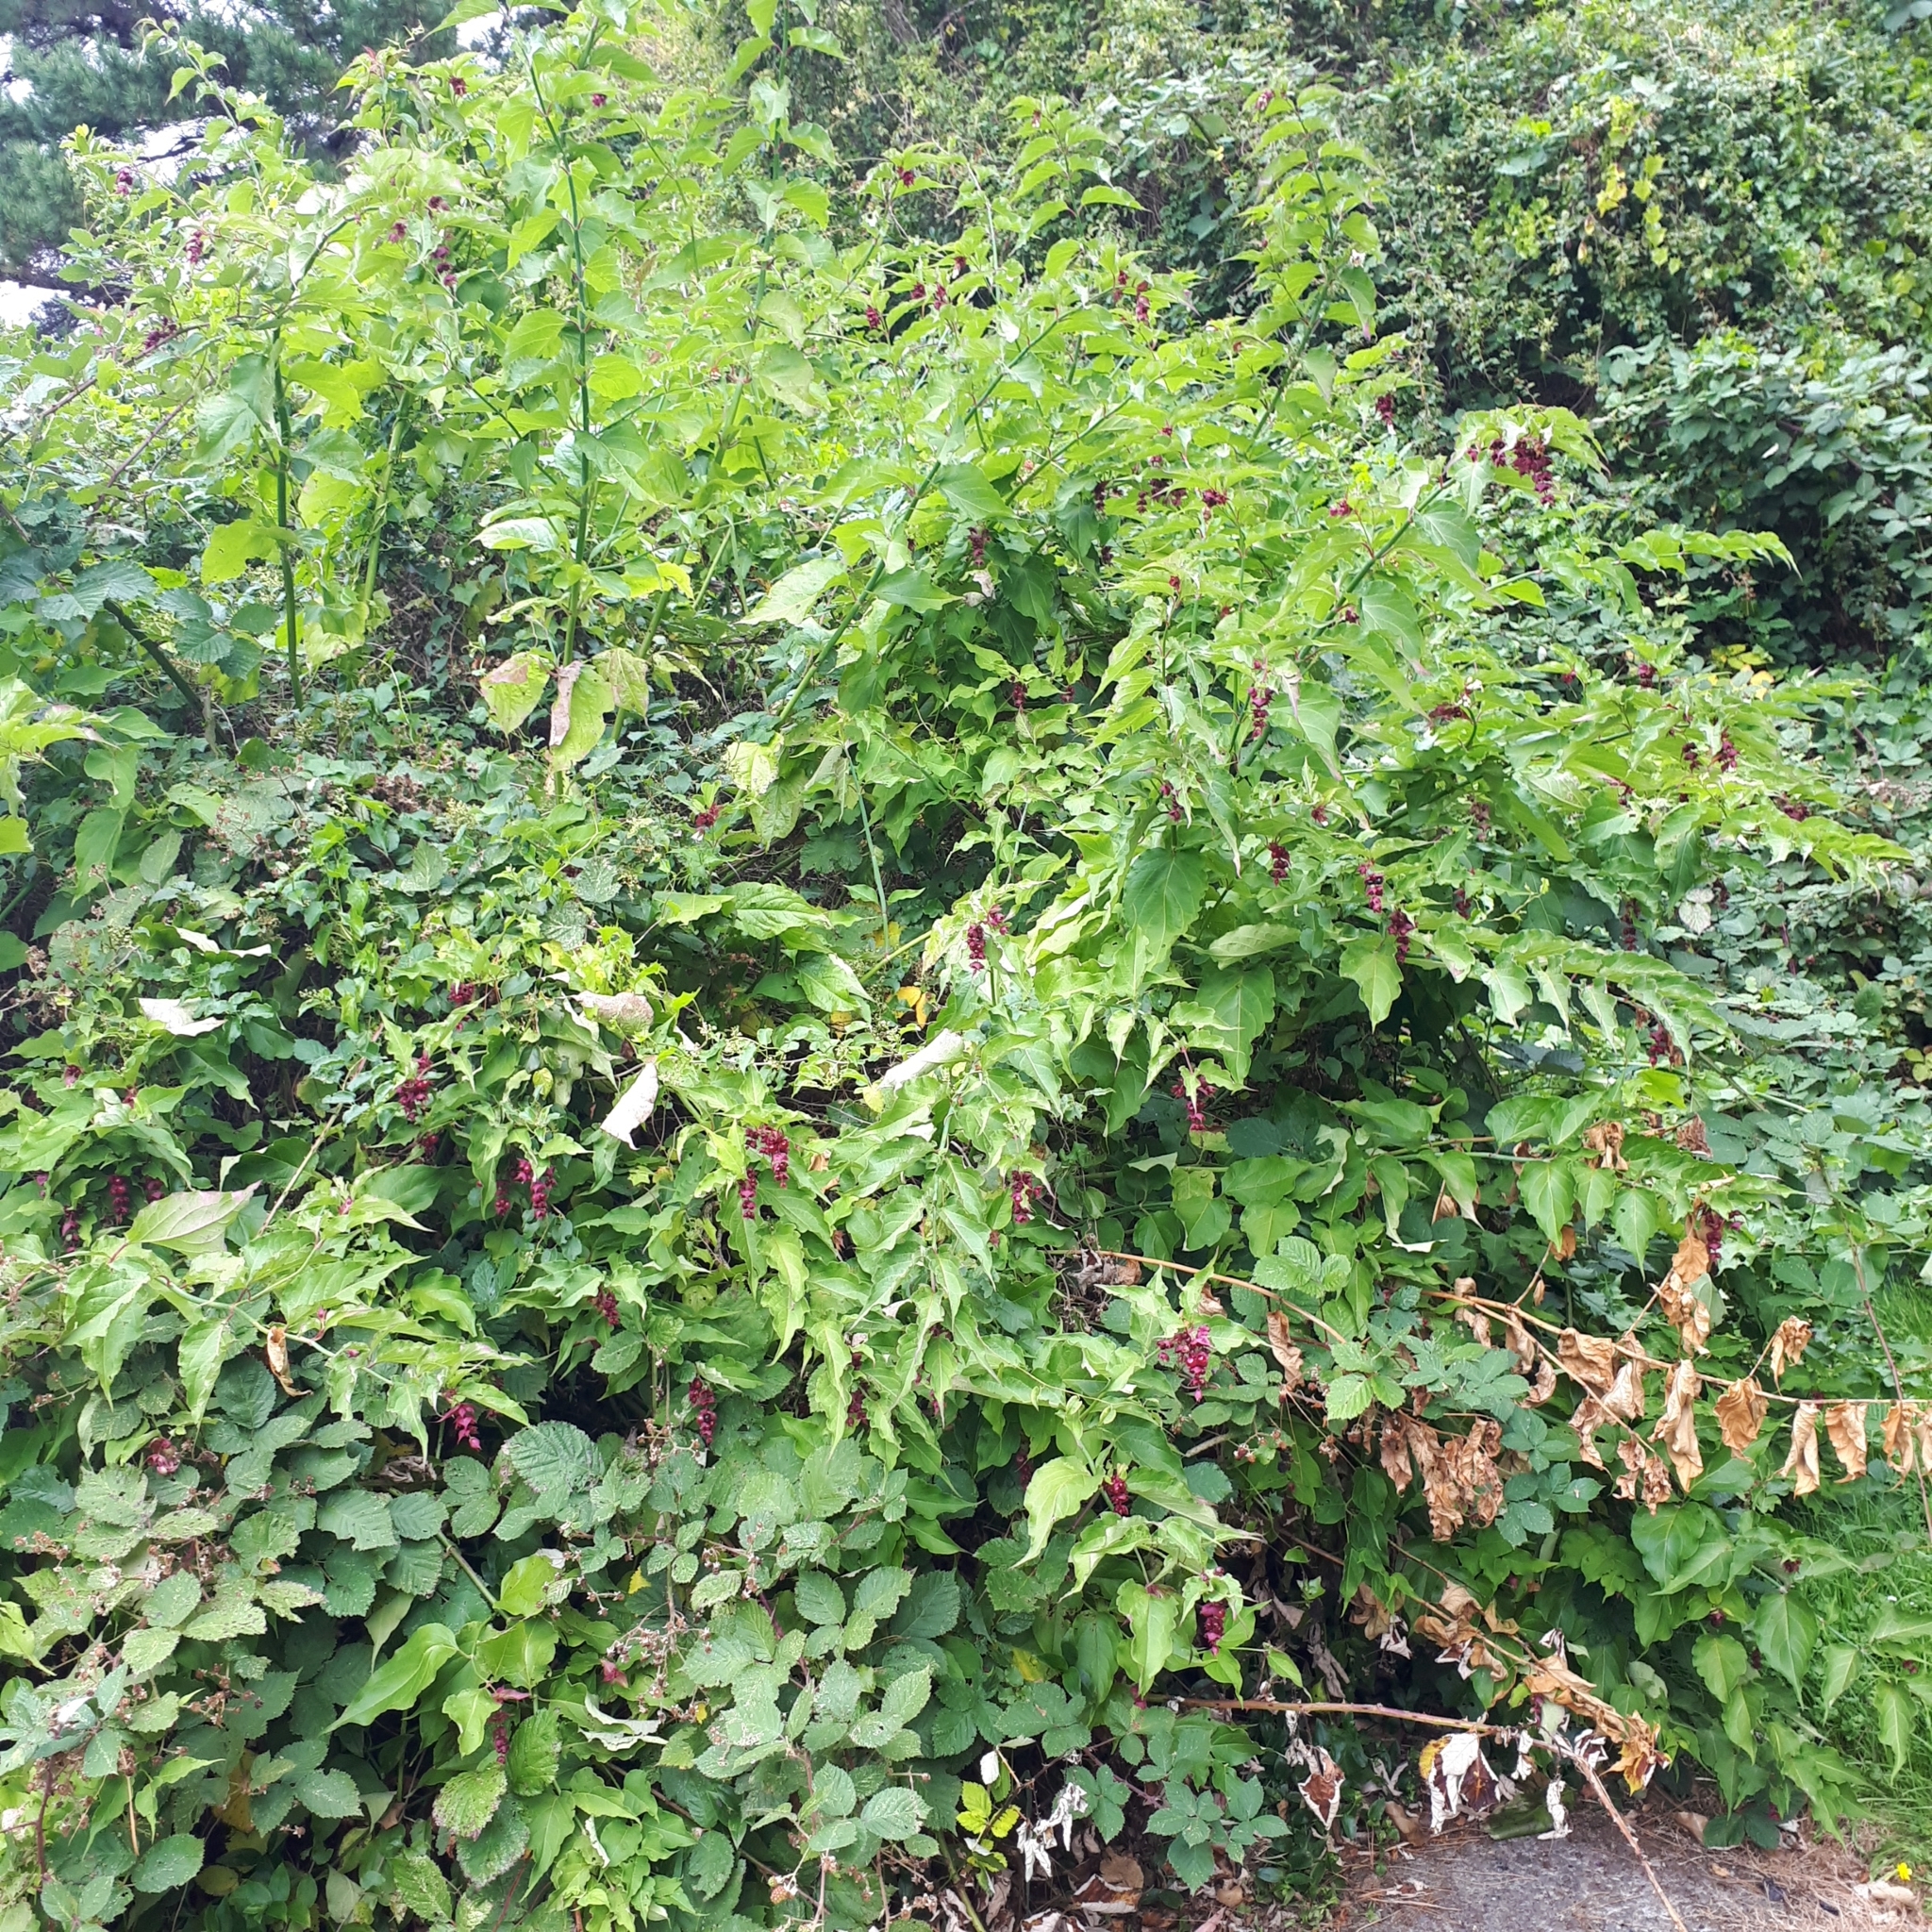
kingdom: Plantae
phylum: Tracheophyta
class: Magnoliopsida
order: Dipsacales
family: Caprifoliaceae
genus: Leycesteria
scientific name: Leycesteria formosa
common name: Himalayan honeysuckle
